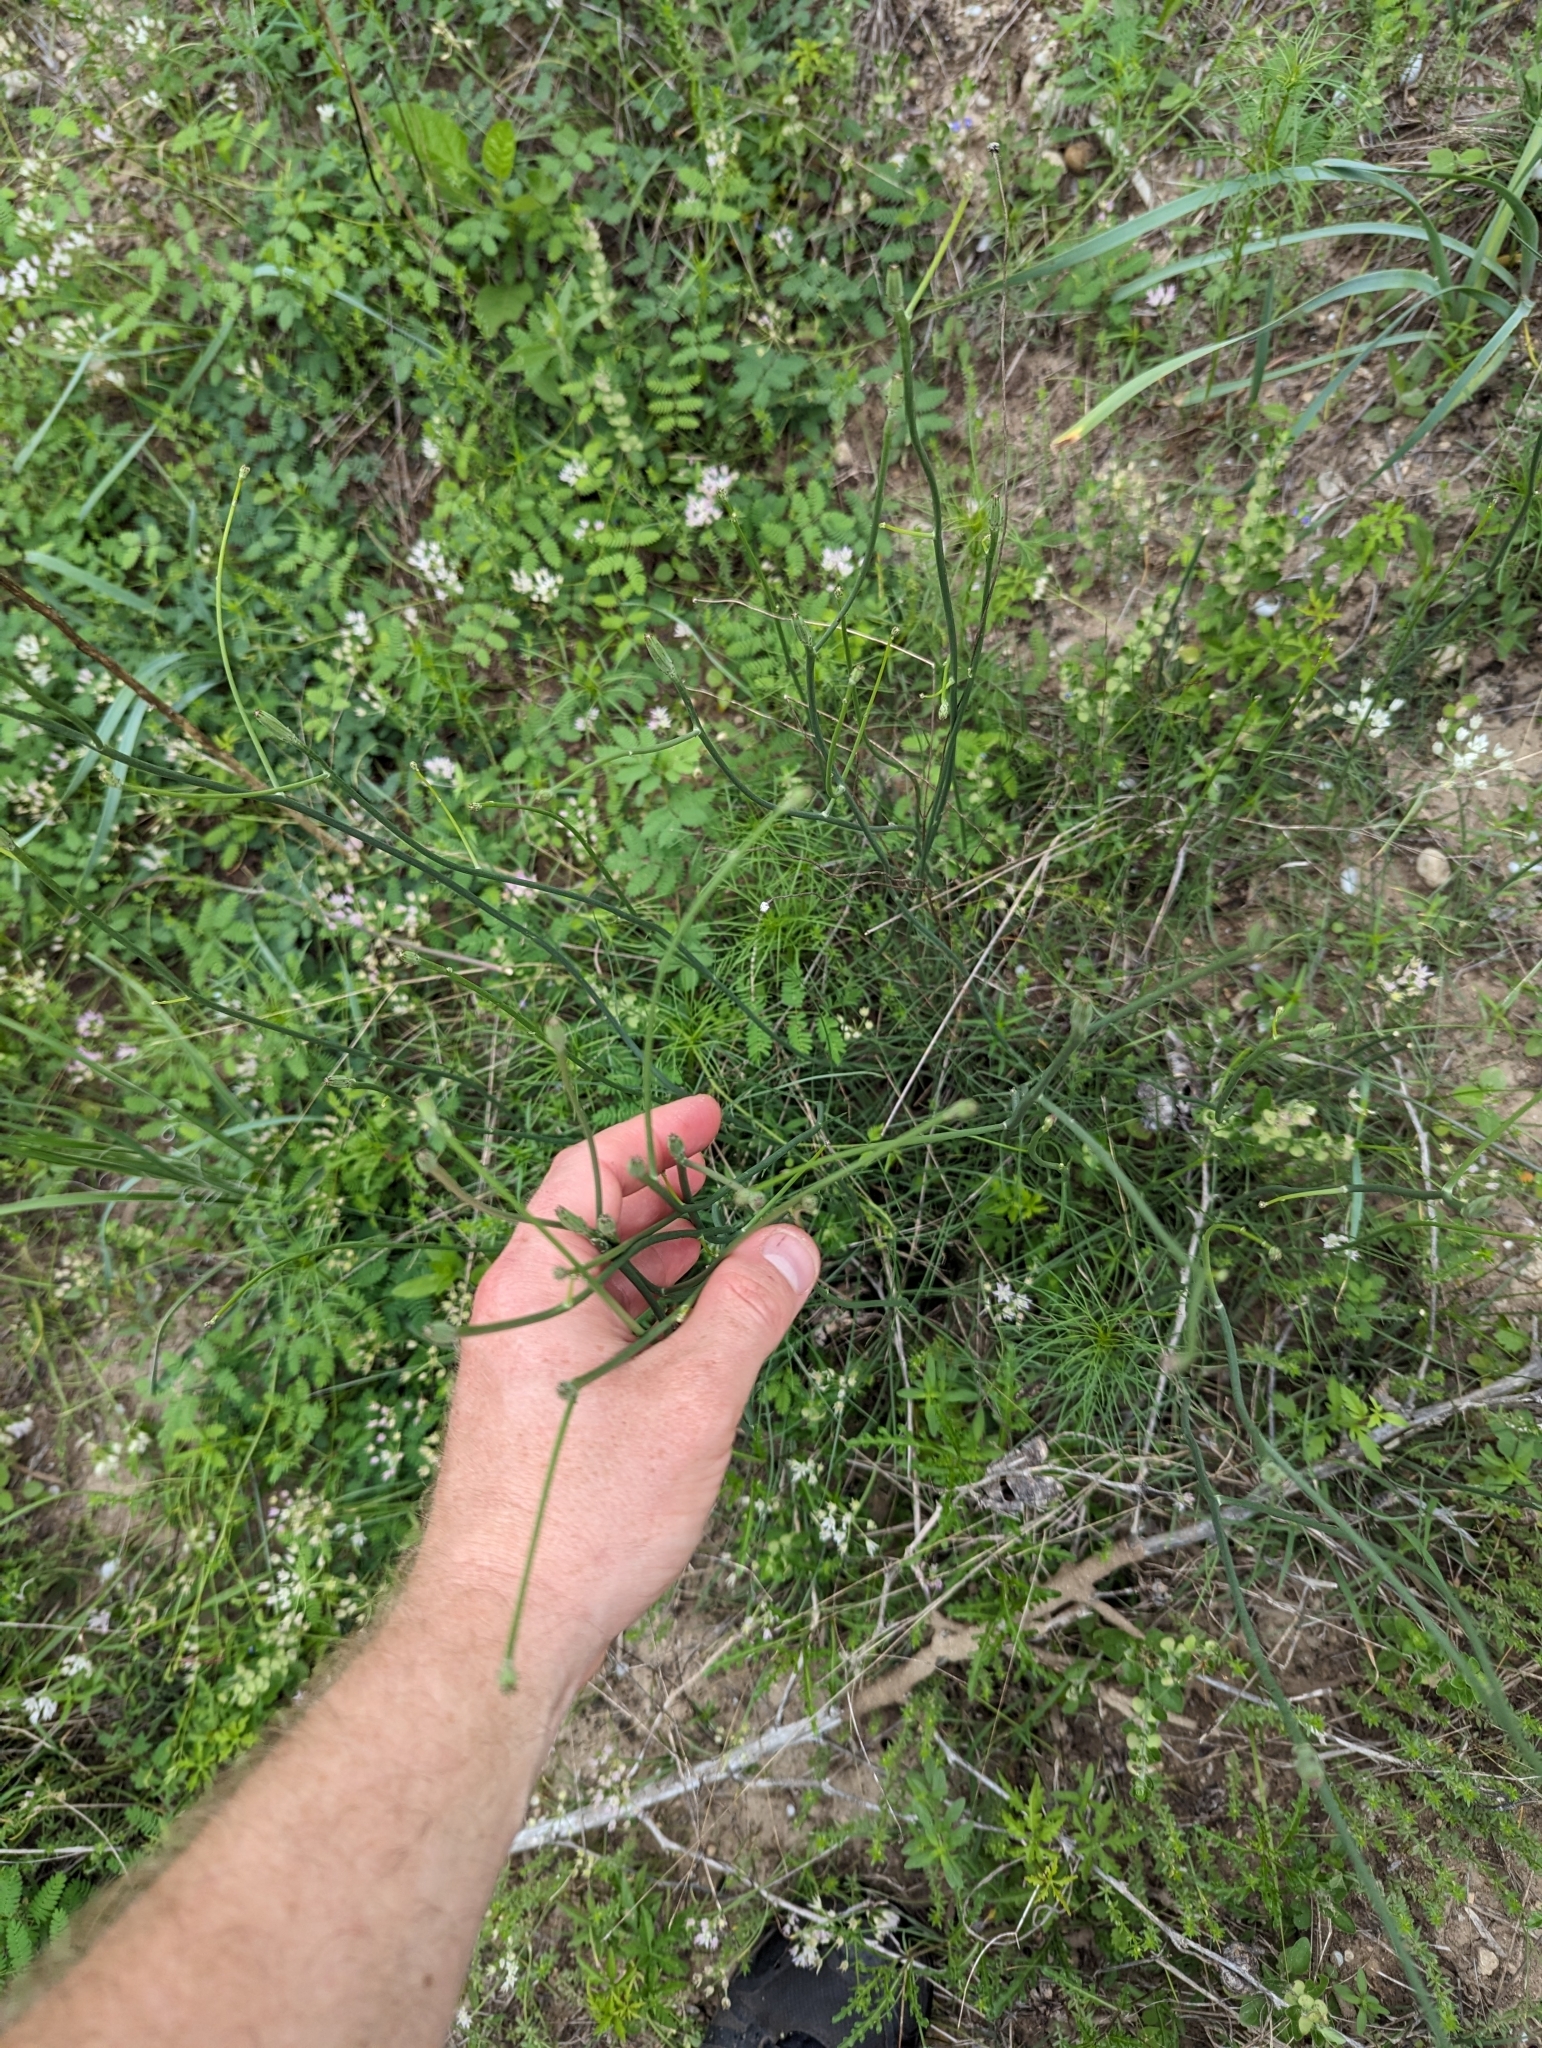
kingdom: Plantae
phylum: Tracheophyta
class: Magnoliopsida
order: Asterales
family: Asteraceae
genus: Lygodesmia
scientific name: Lygodesmia texana
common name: Texas skeleton-plant
